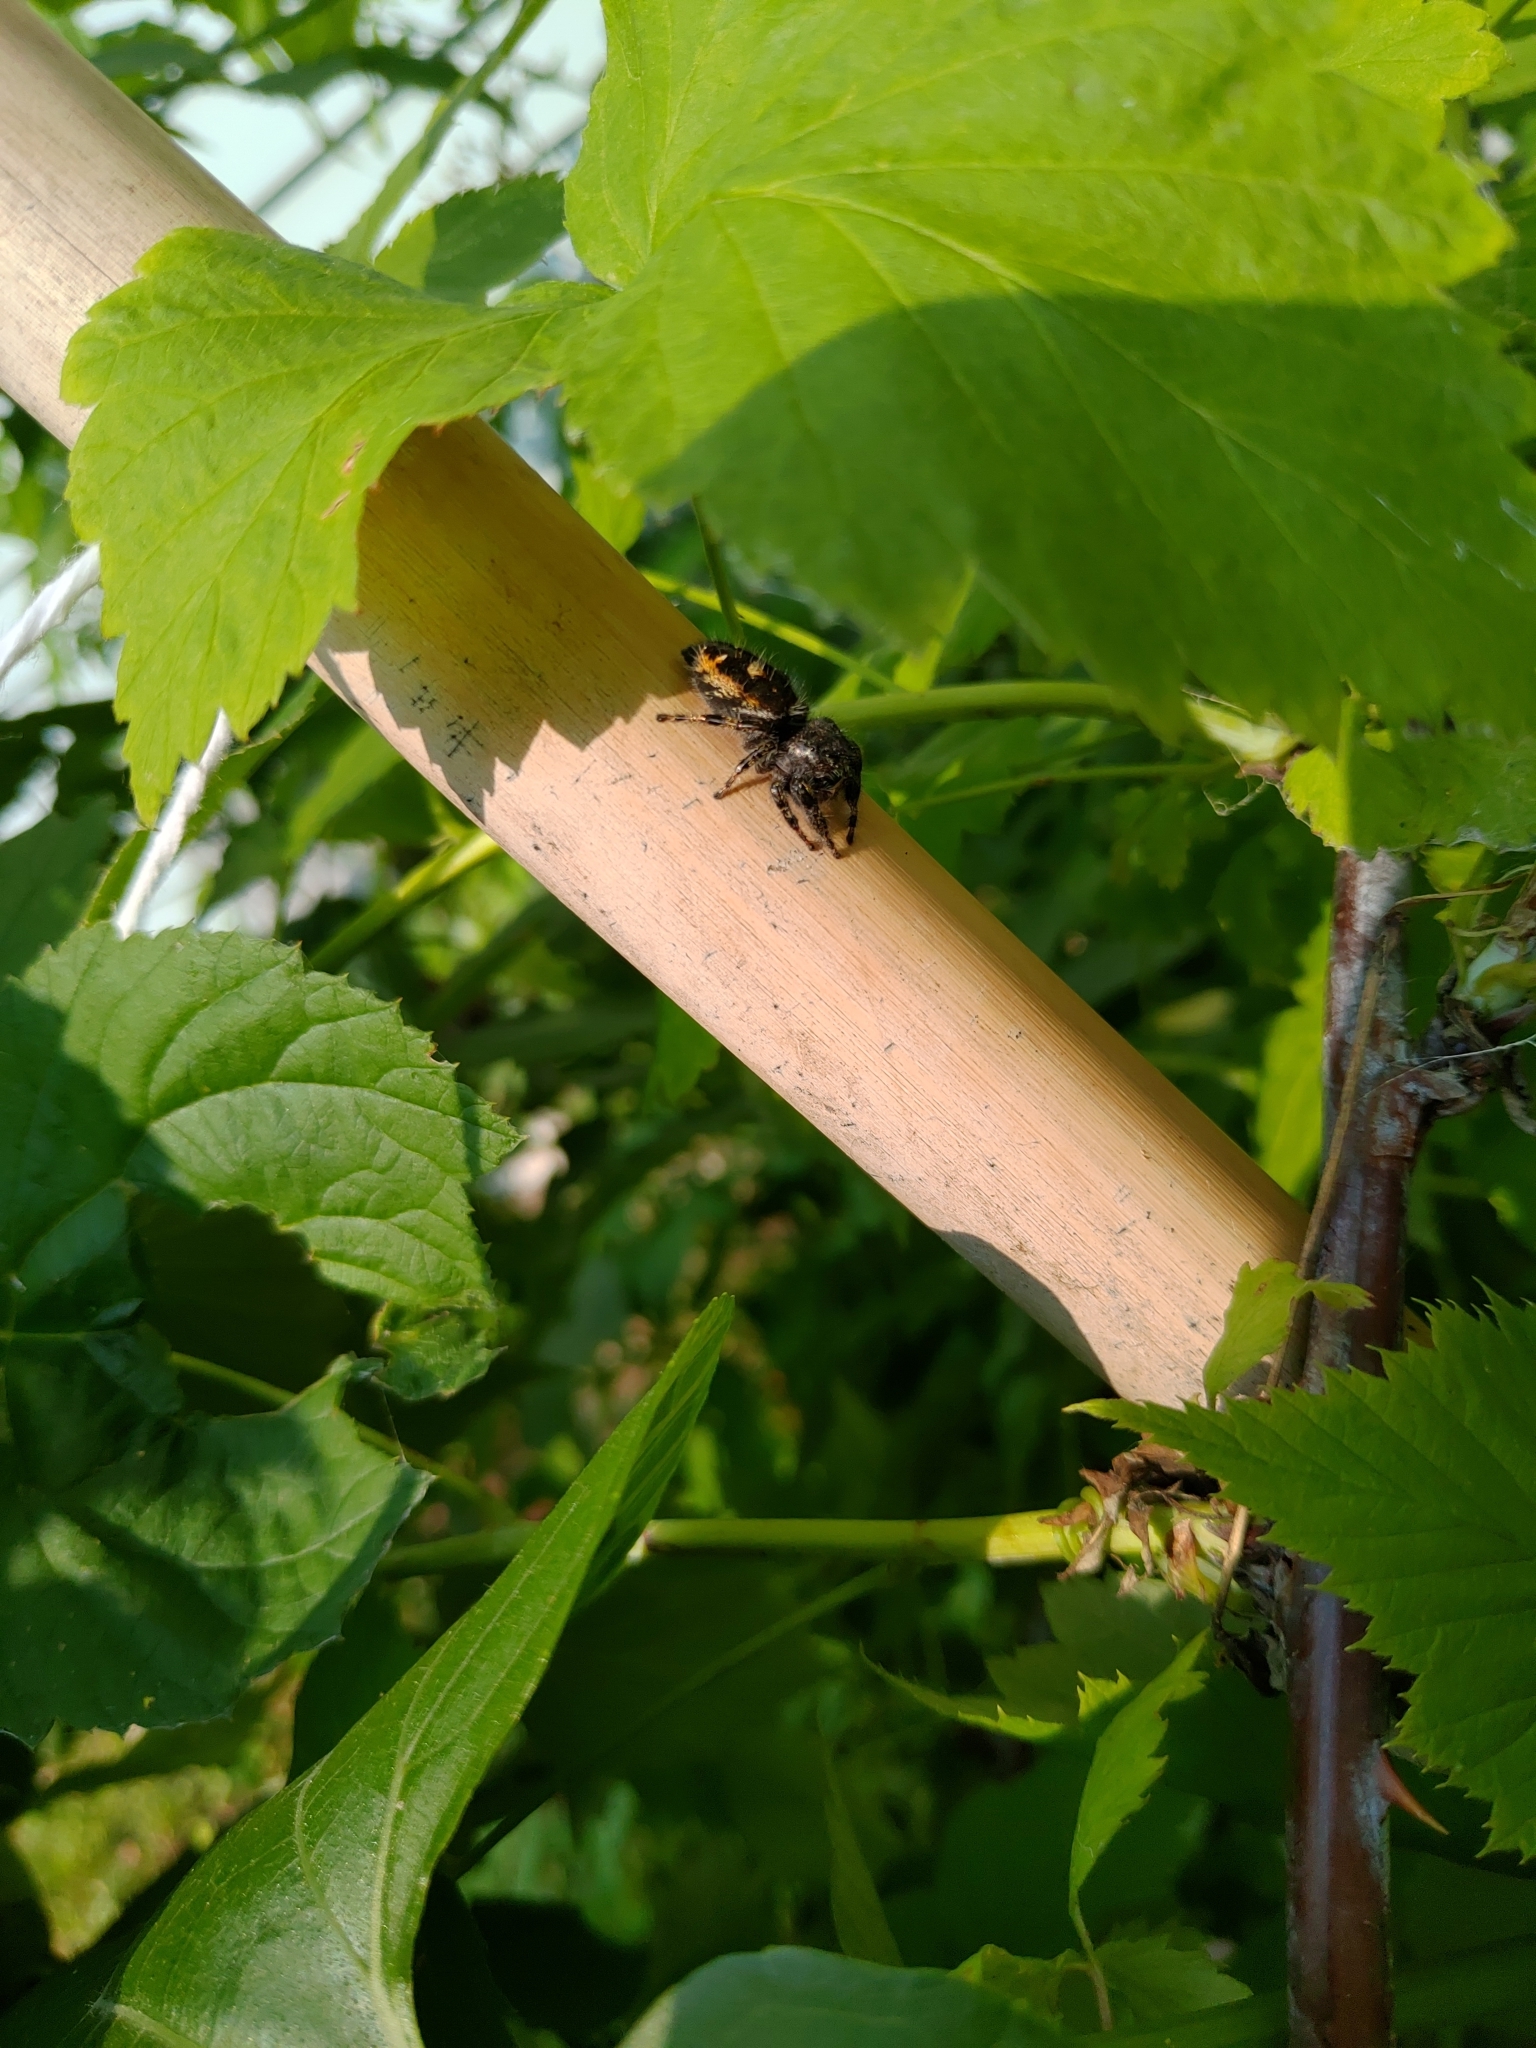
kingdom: Animalia
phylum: Arthropoda
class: Arachnida
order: Araneae
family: Salticidae
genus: Phidippus
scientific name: Phidippus audax
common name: Bold jumper
